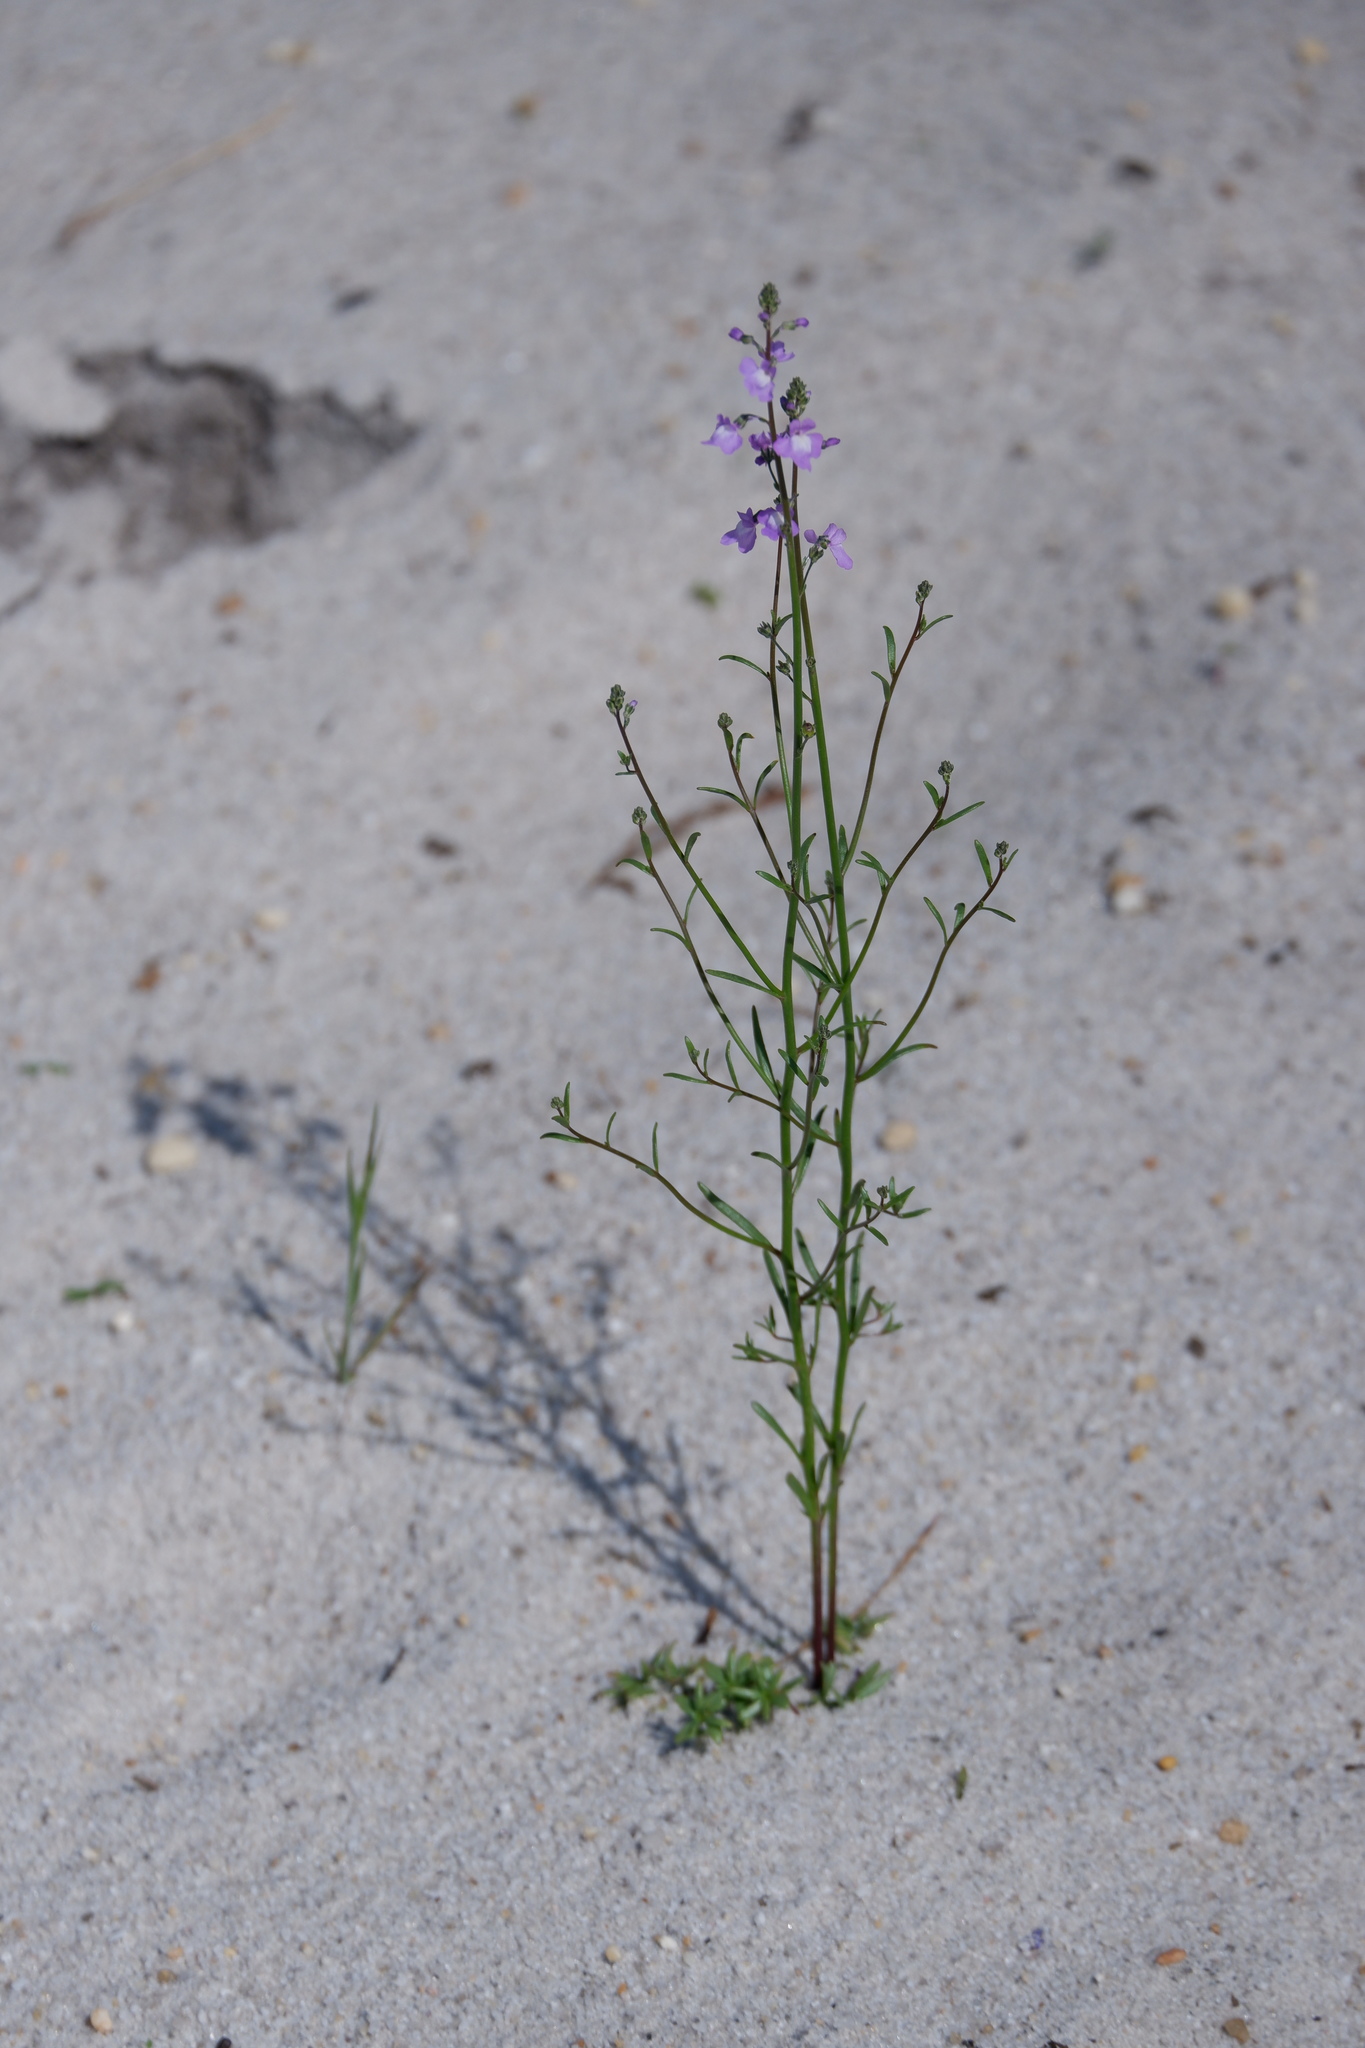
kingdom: Plantae
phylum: Tracheophyta
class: Magnoliopsida
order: Lamiales
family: Plantaginaceae
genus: Nuttallanthus
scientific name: Nuttallanthus canadensis
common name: Blue toadflax
